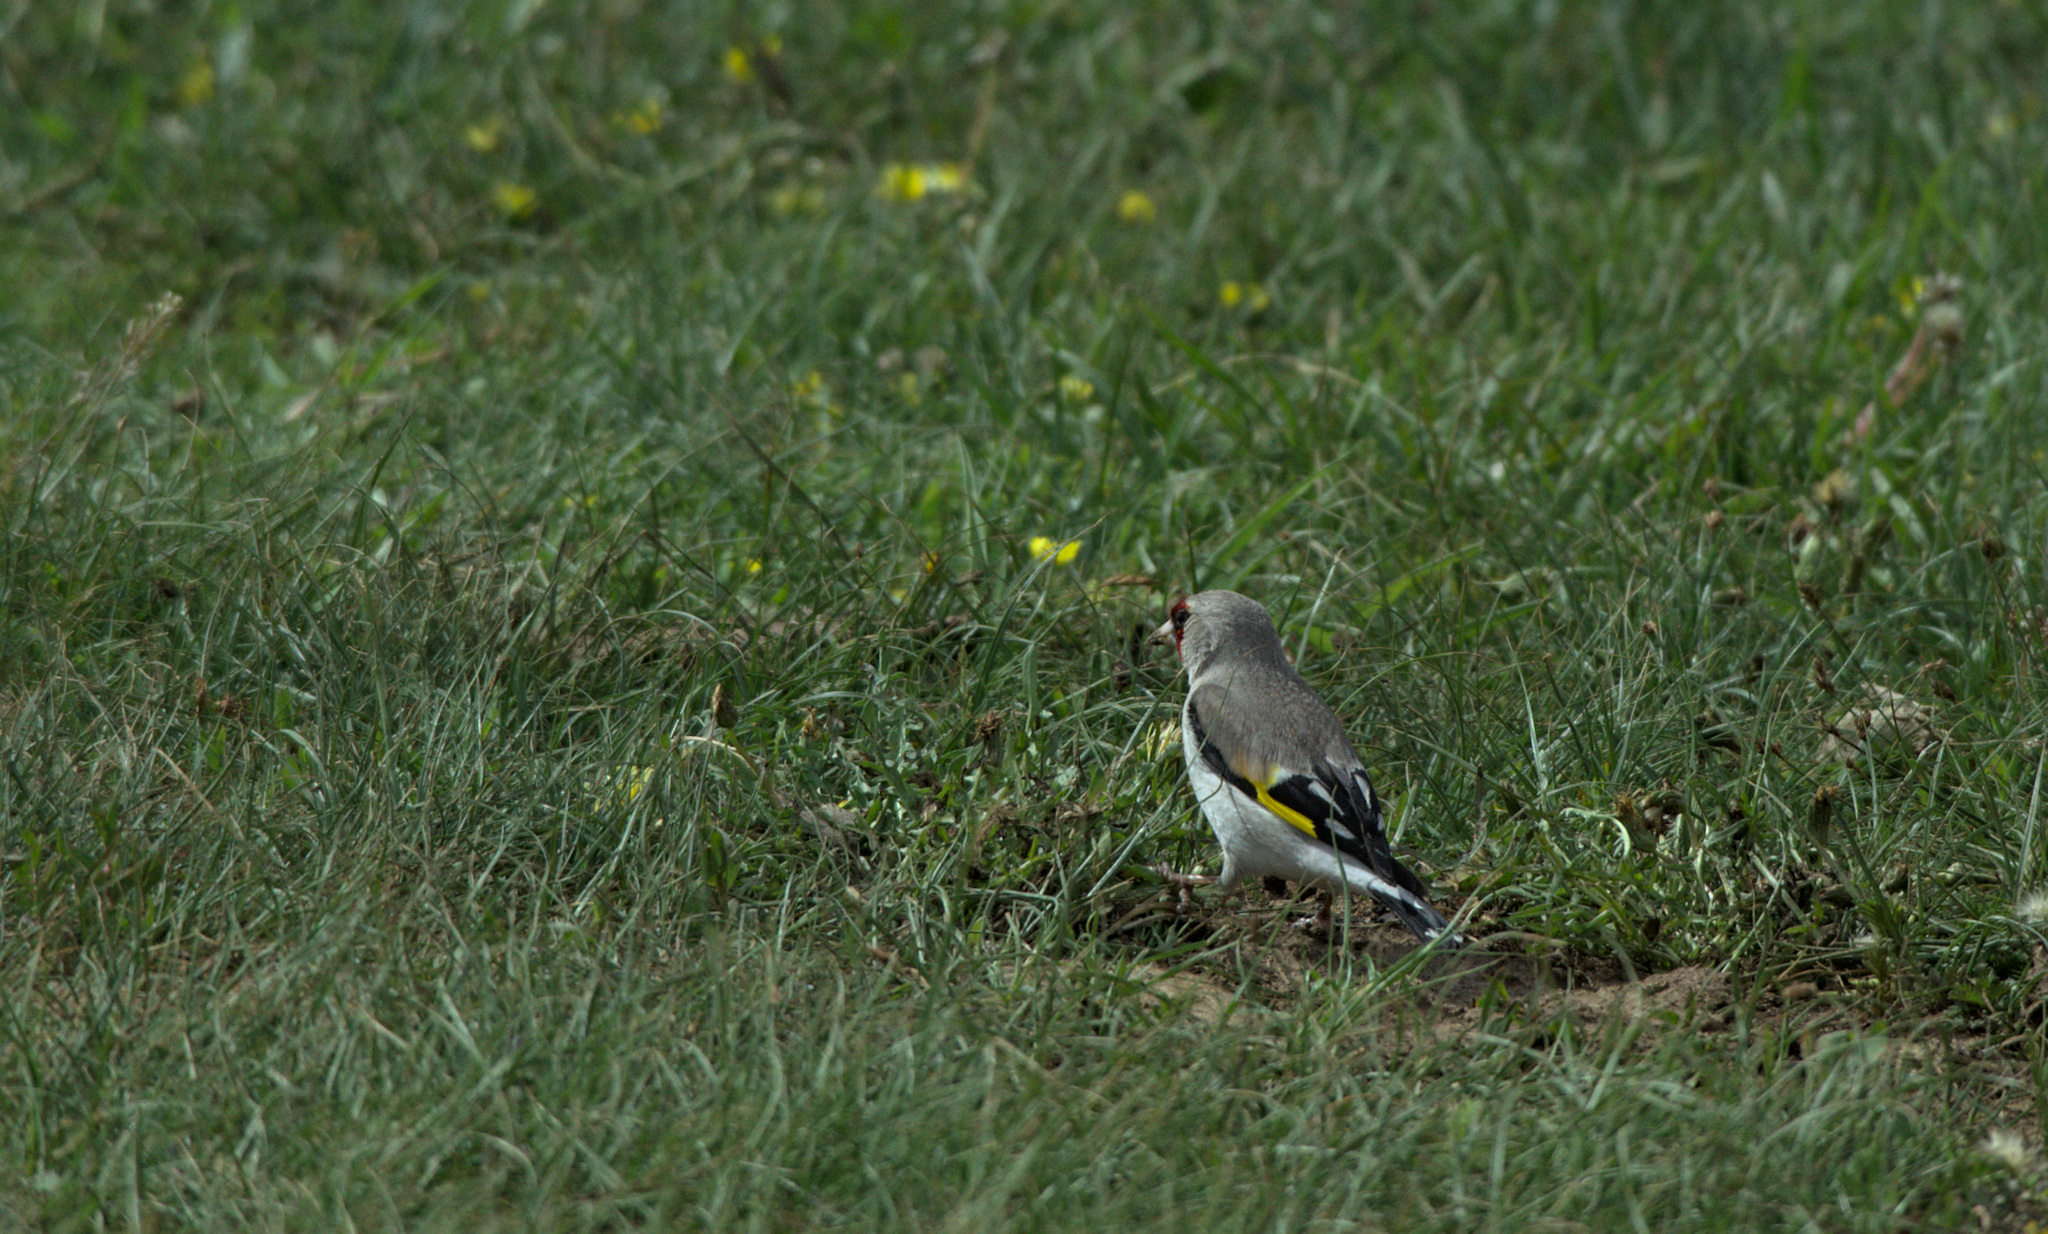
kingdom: Animalia
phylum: Chordata
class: Aves
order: Passeriformes
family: Fringillidae
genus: Carduelis
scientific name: Carduelis carduelis
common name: European goldfinch
